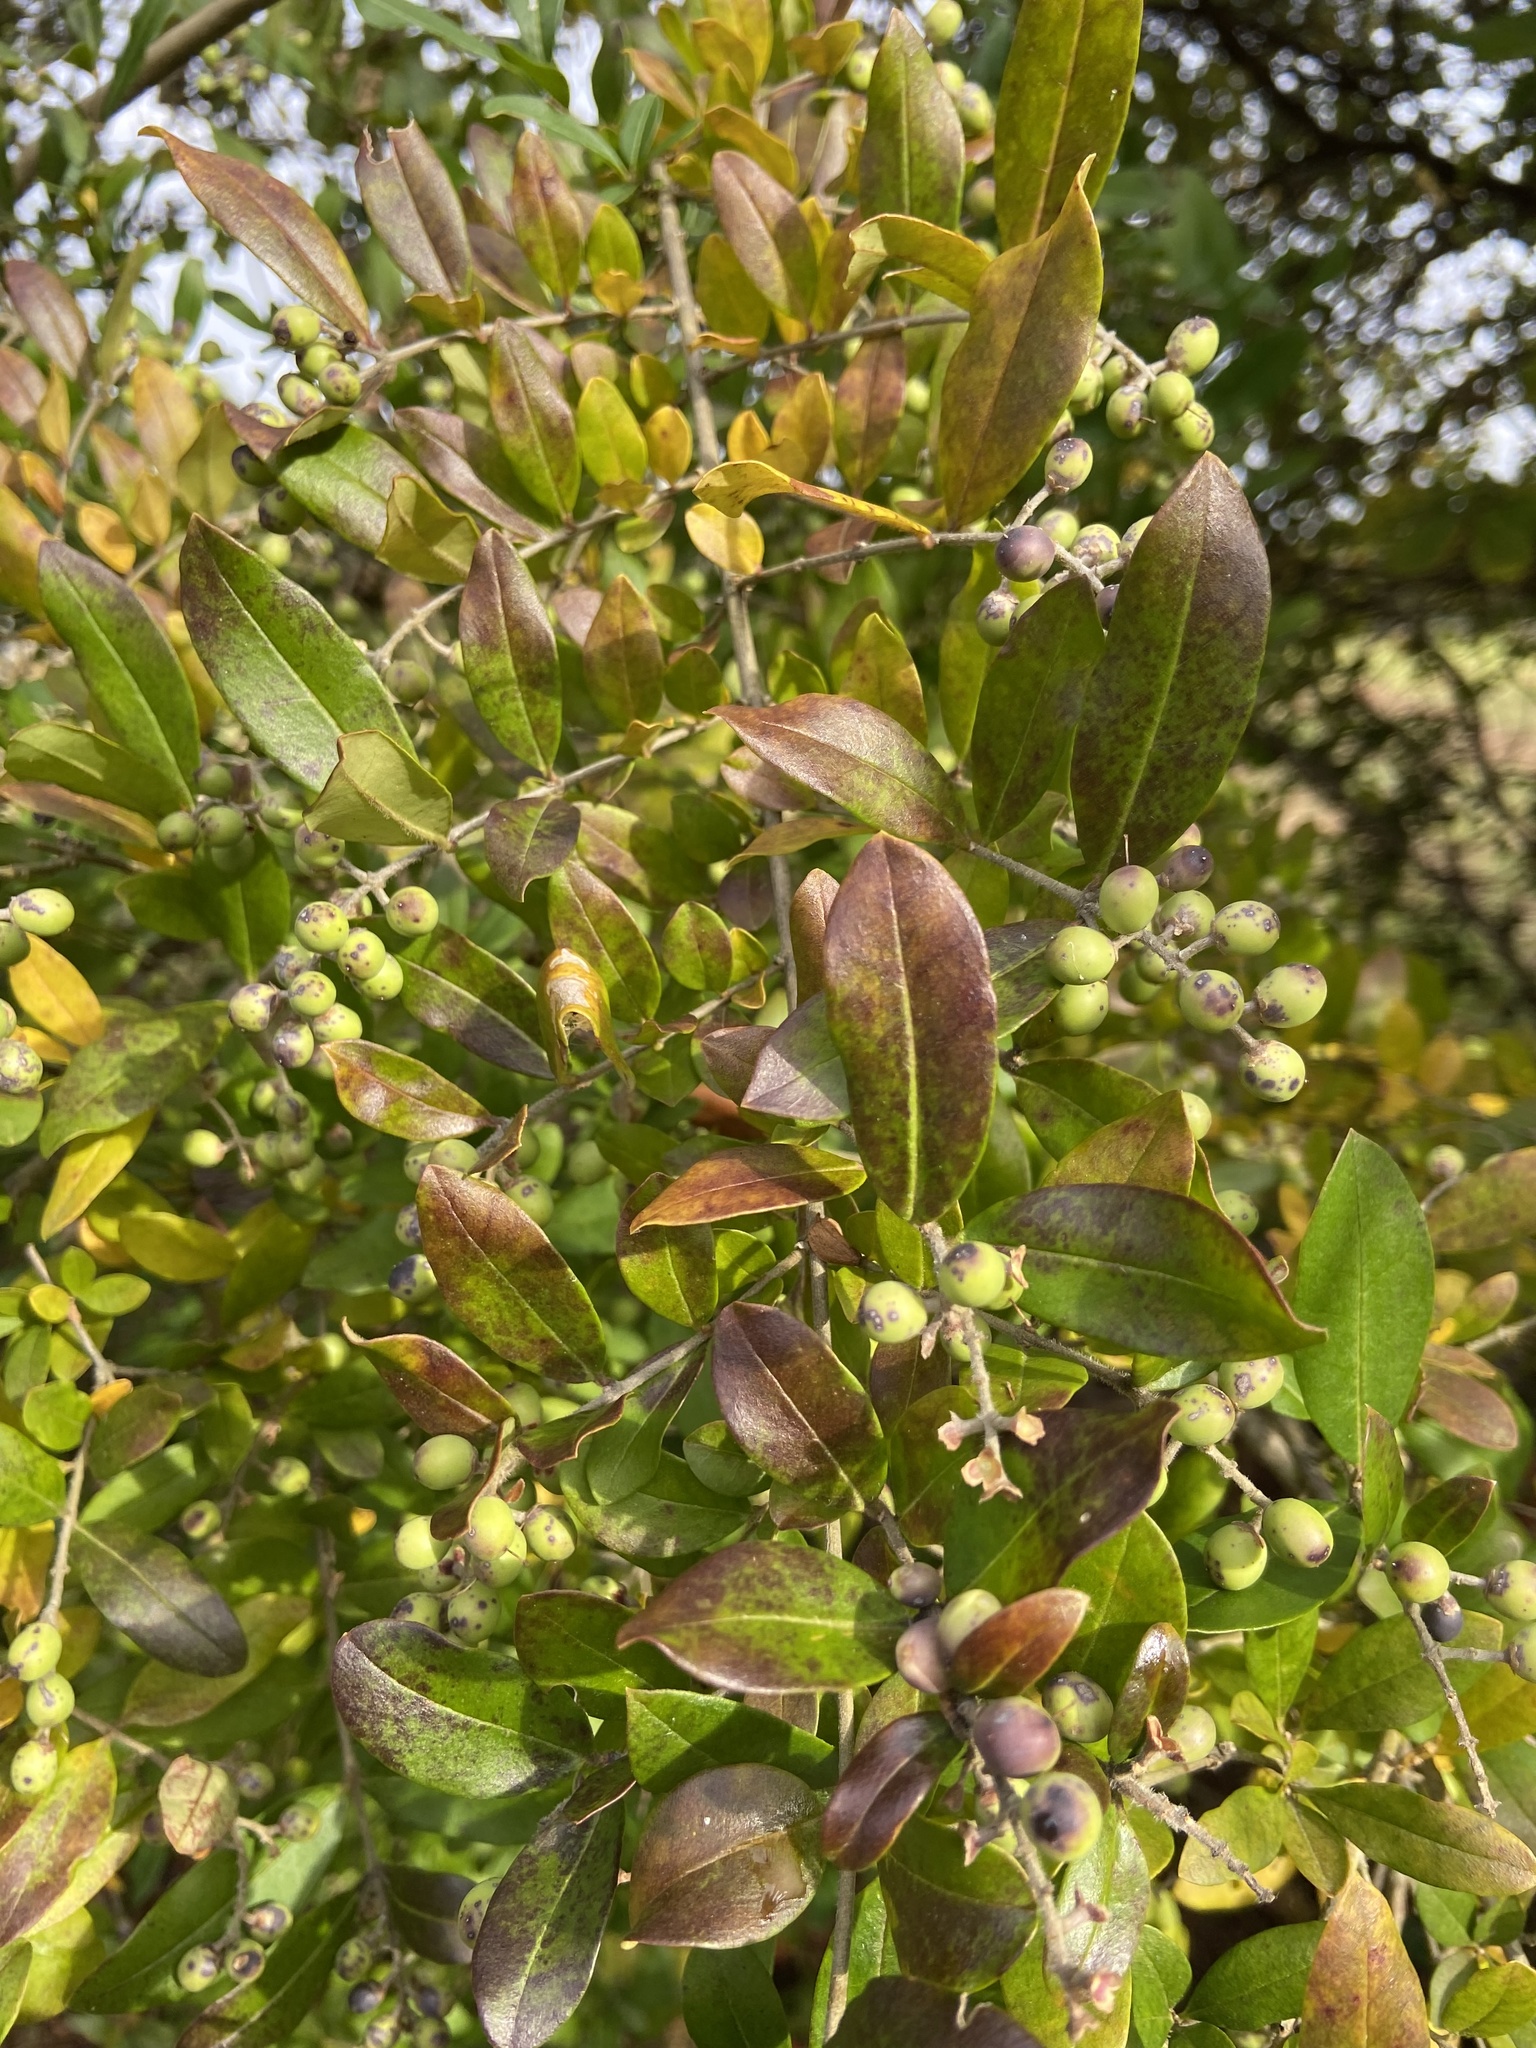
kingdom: Plantae
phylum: Tracheophyta
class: Magnoliopsida
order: Lamiales
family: Oleaceae
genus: Ligustrum
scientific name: Ligustrum obtusifolium
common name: Border privet
